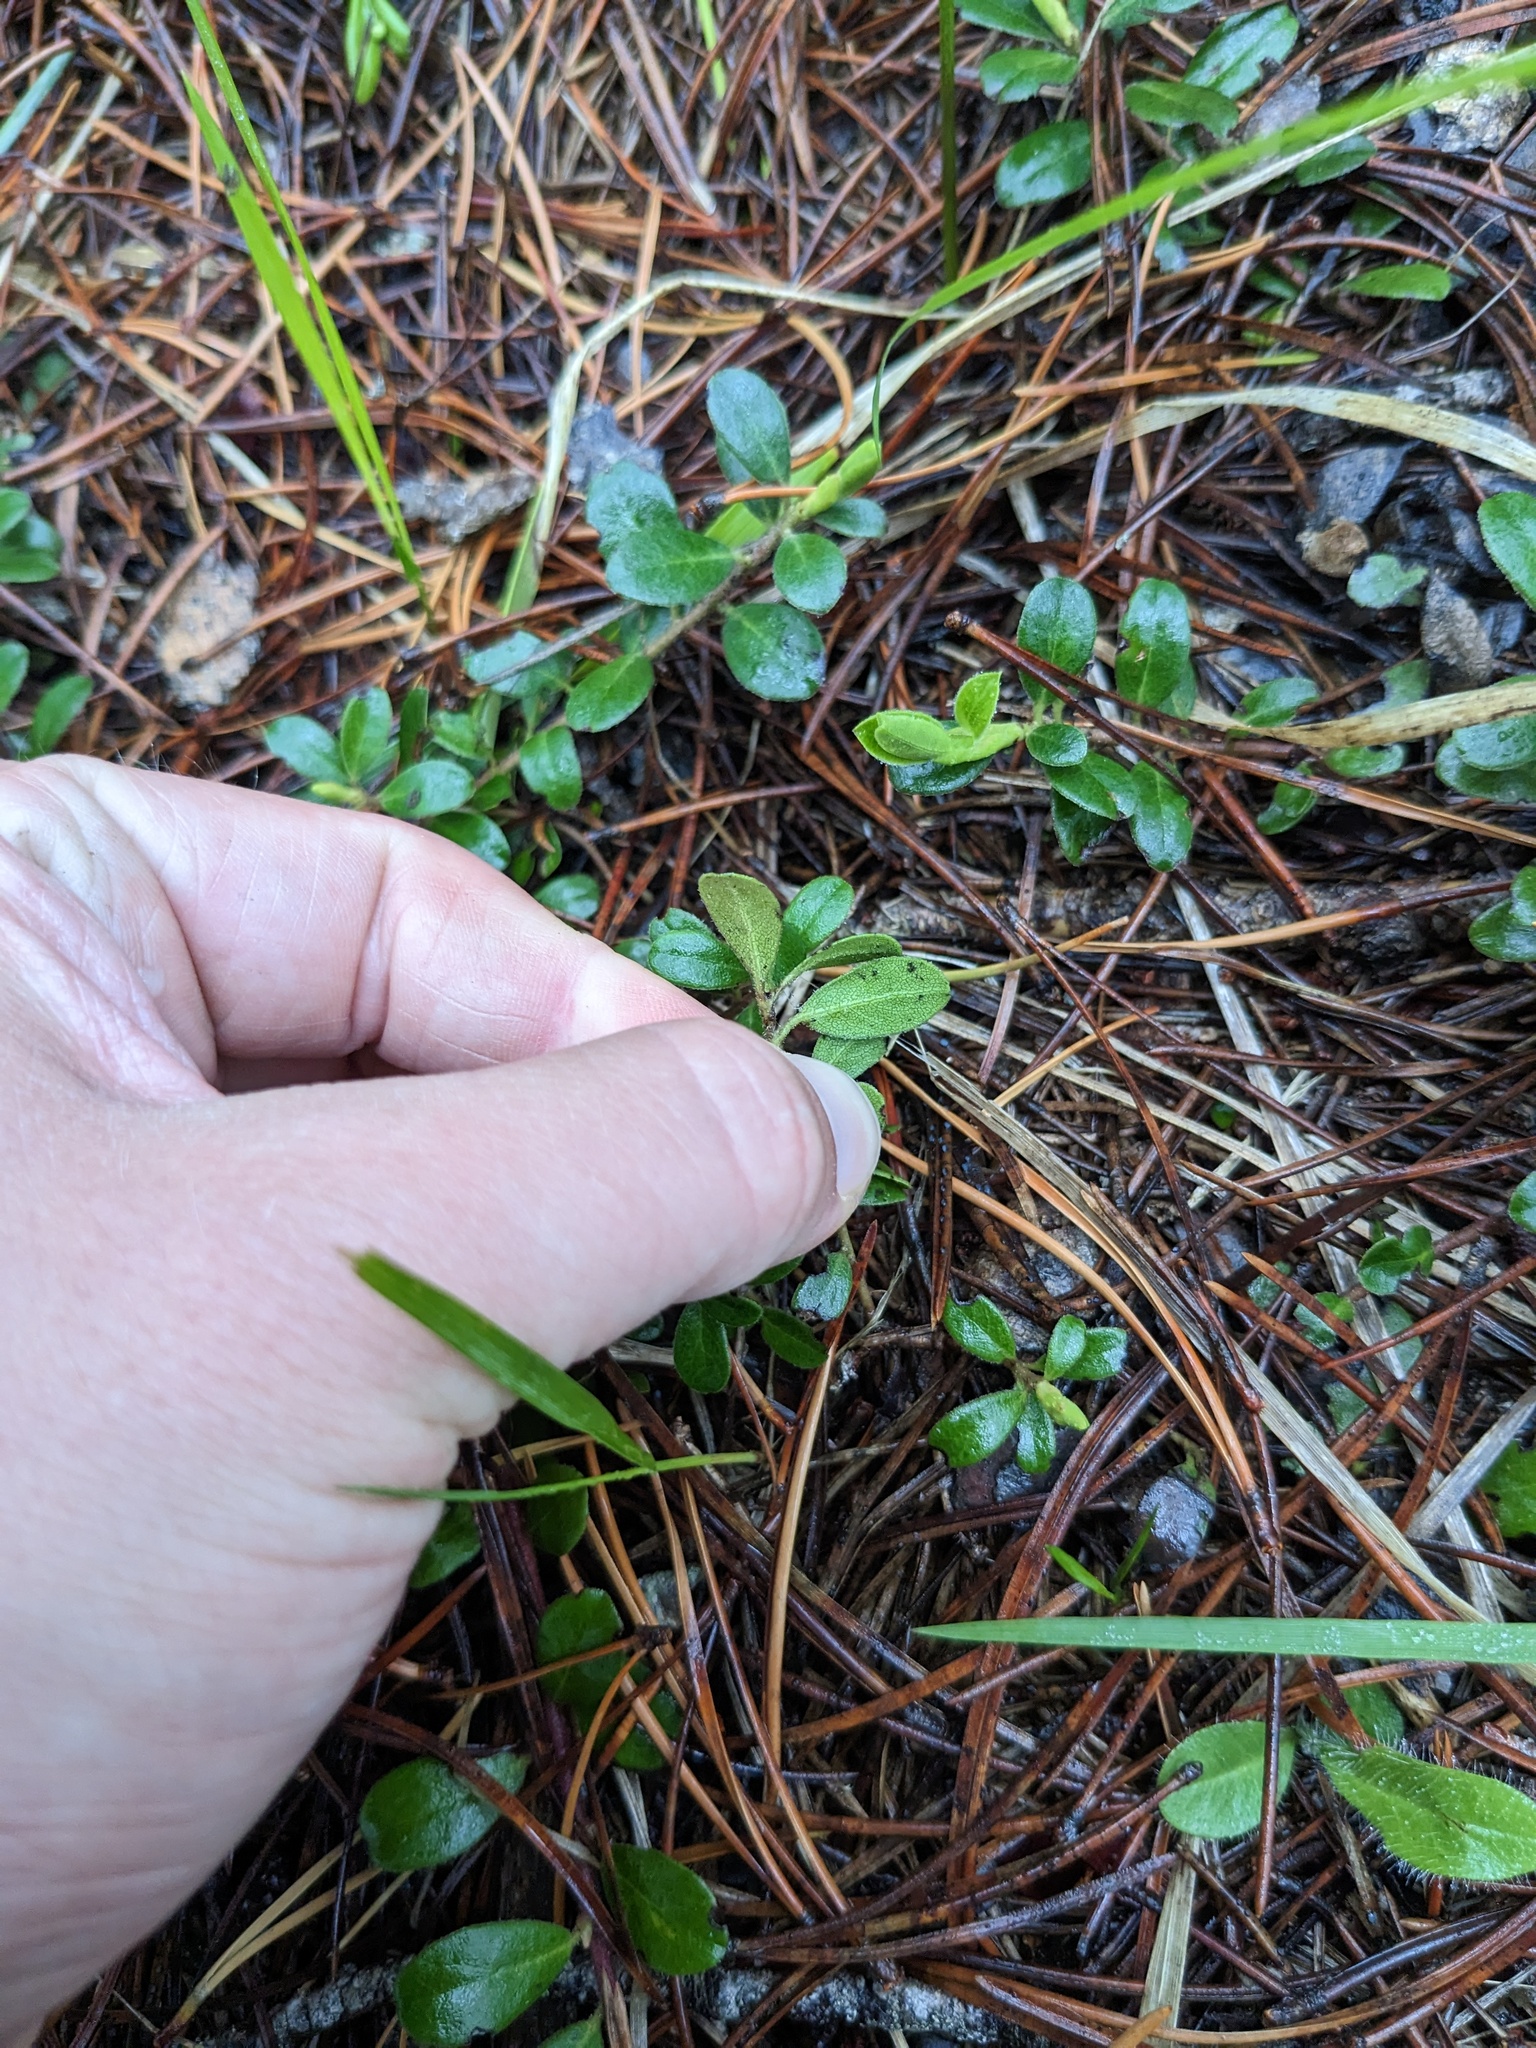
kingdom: Plantae
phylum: Tracheophyta
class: Magnoliopsida
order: Ericales
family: Ericaceae
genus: Arctostaphylos
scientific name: Arctostaphylos uva-ursi
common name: Bearberry
